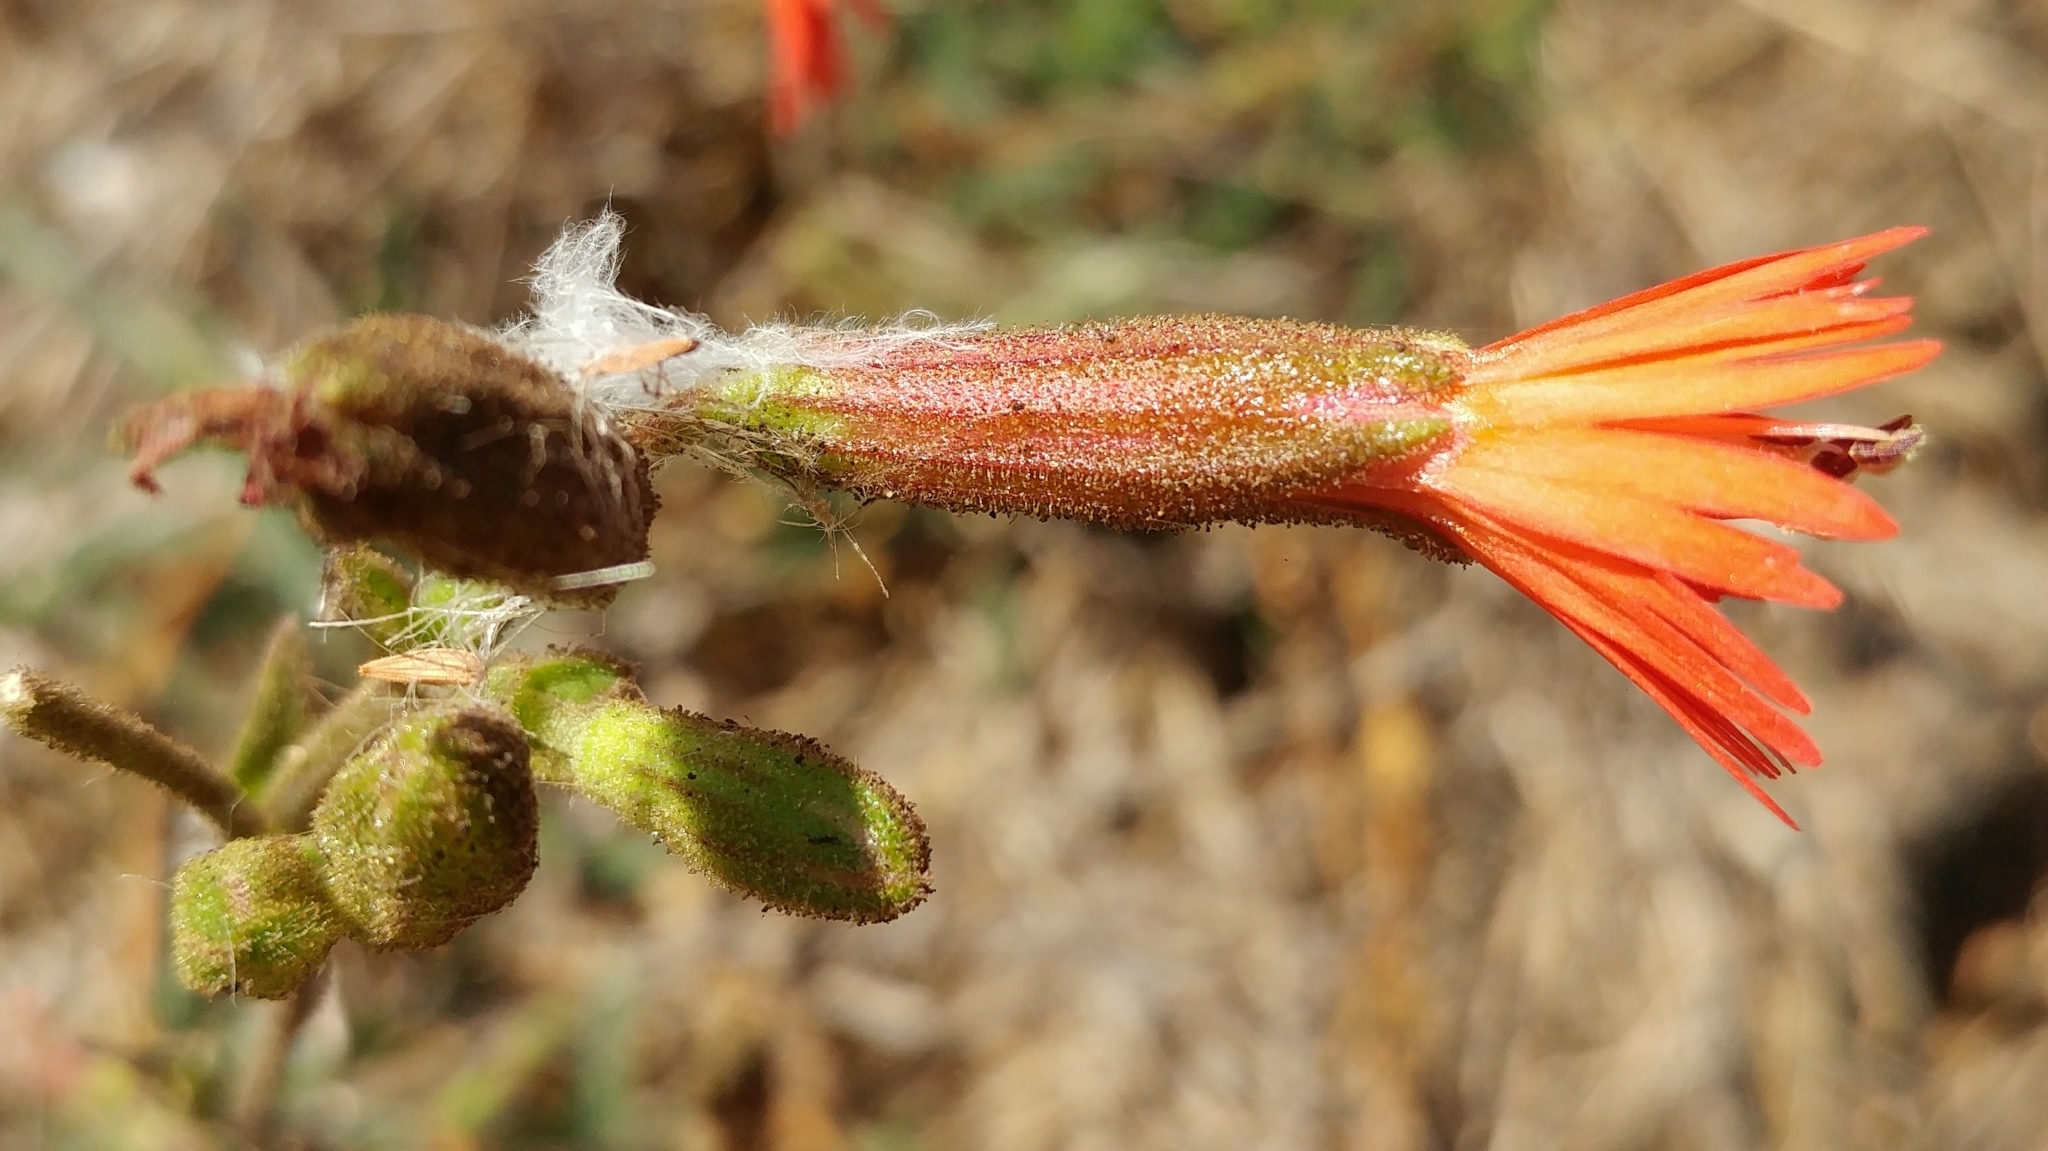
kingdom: Plantae
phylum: Tracheophyta
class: Magnoliopsida
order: Caryophyllales
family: Caryophyllaceae
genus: Silene
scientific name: Silene laciniata
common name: Indian-pink
